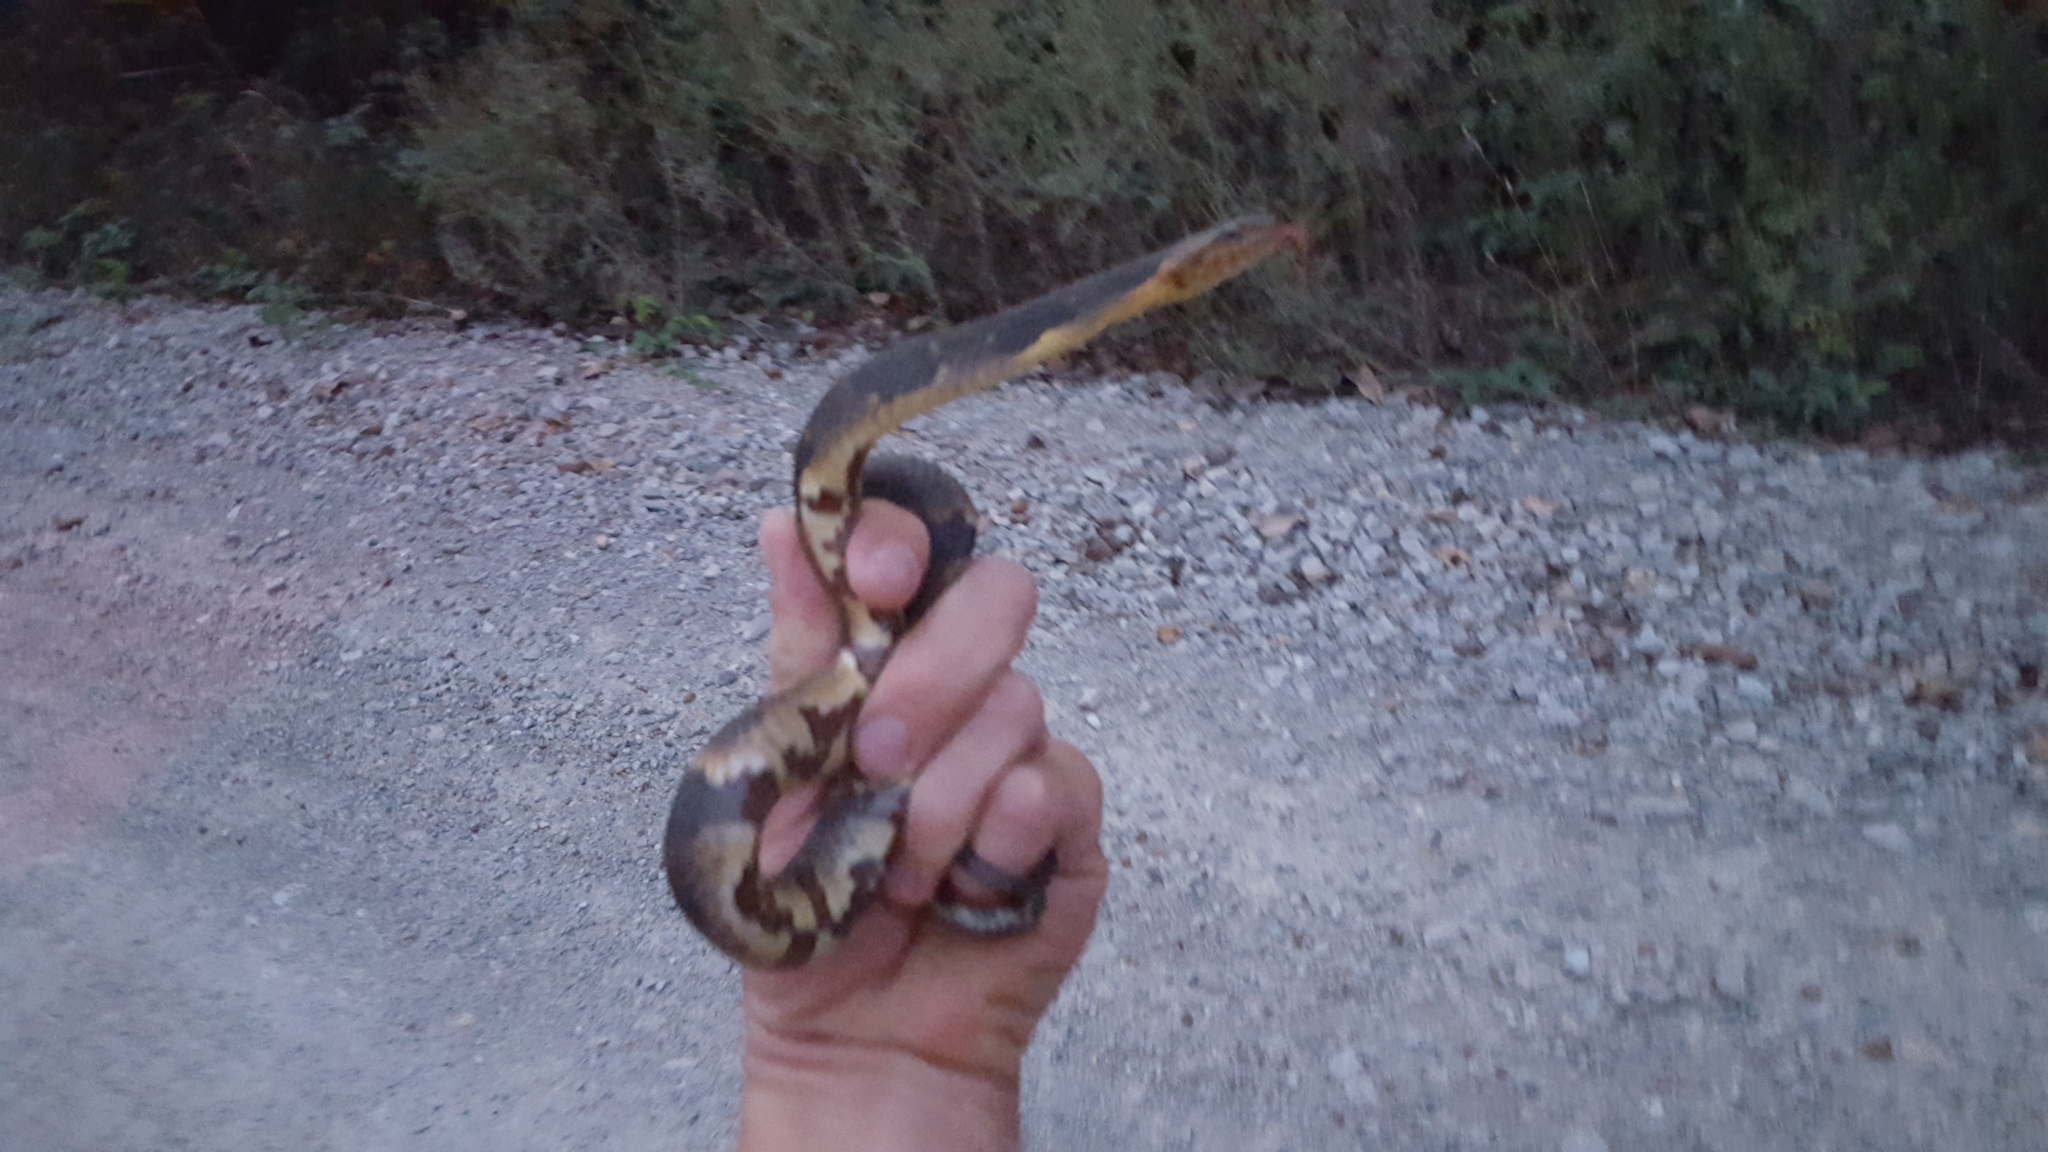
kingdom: Animalia
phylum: Chordata
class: Squamata
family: Colubridae
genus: Nerodia
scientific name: Nerodia fasciata
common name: Southern water snake
